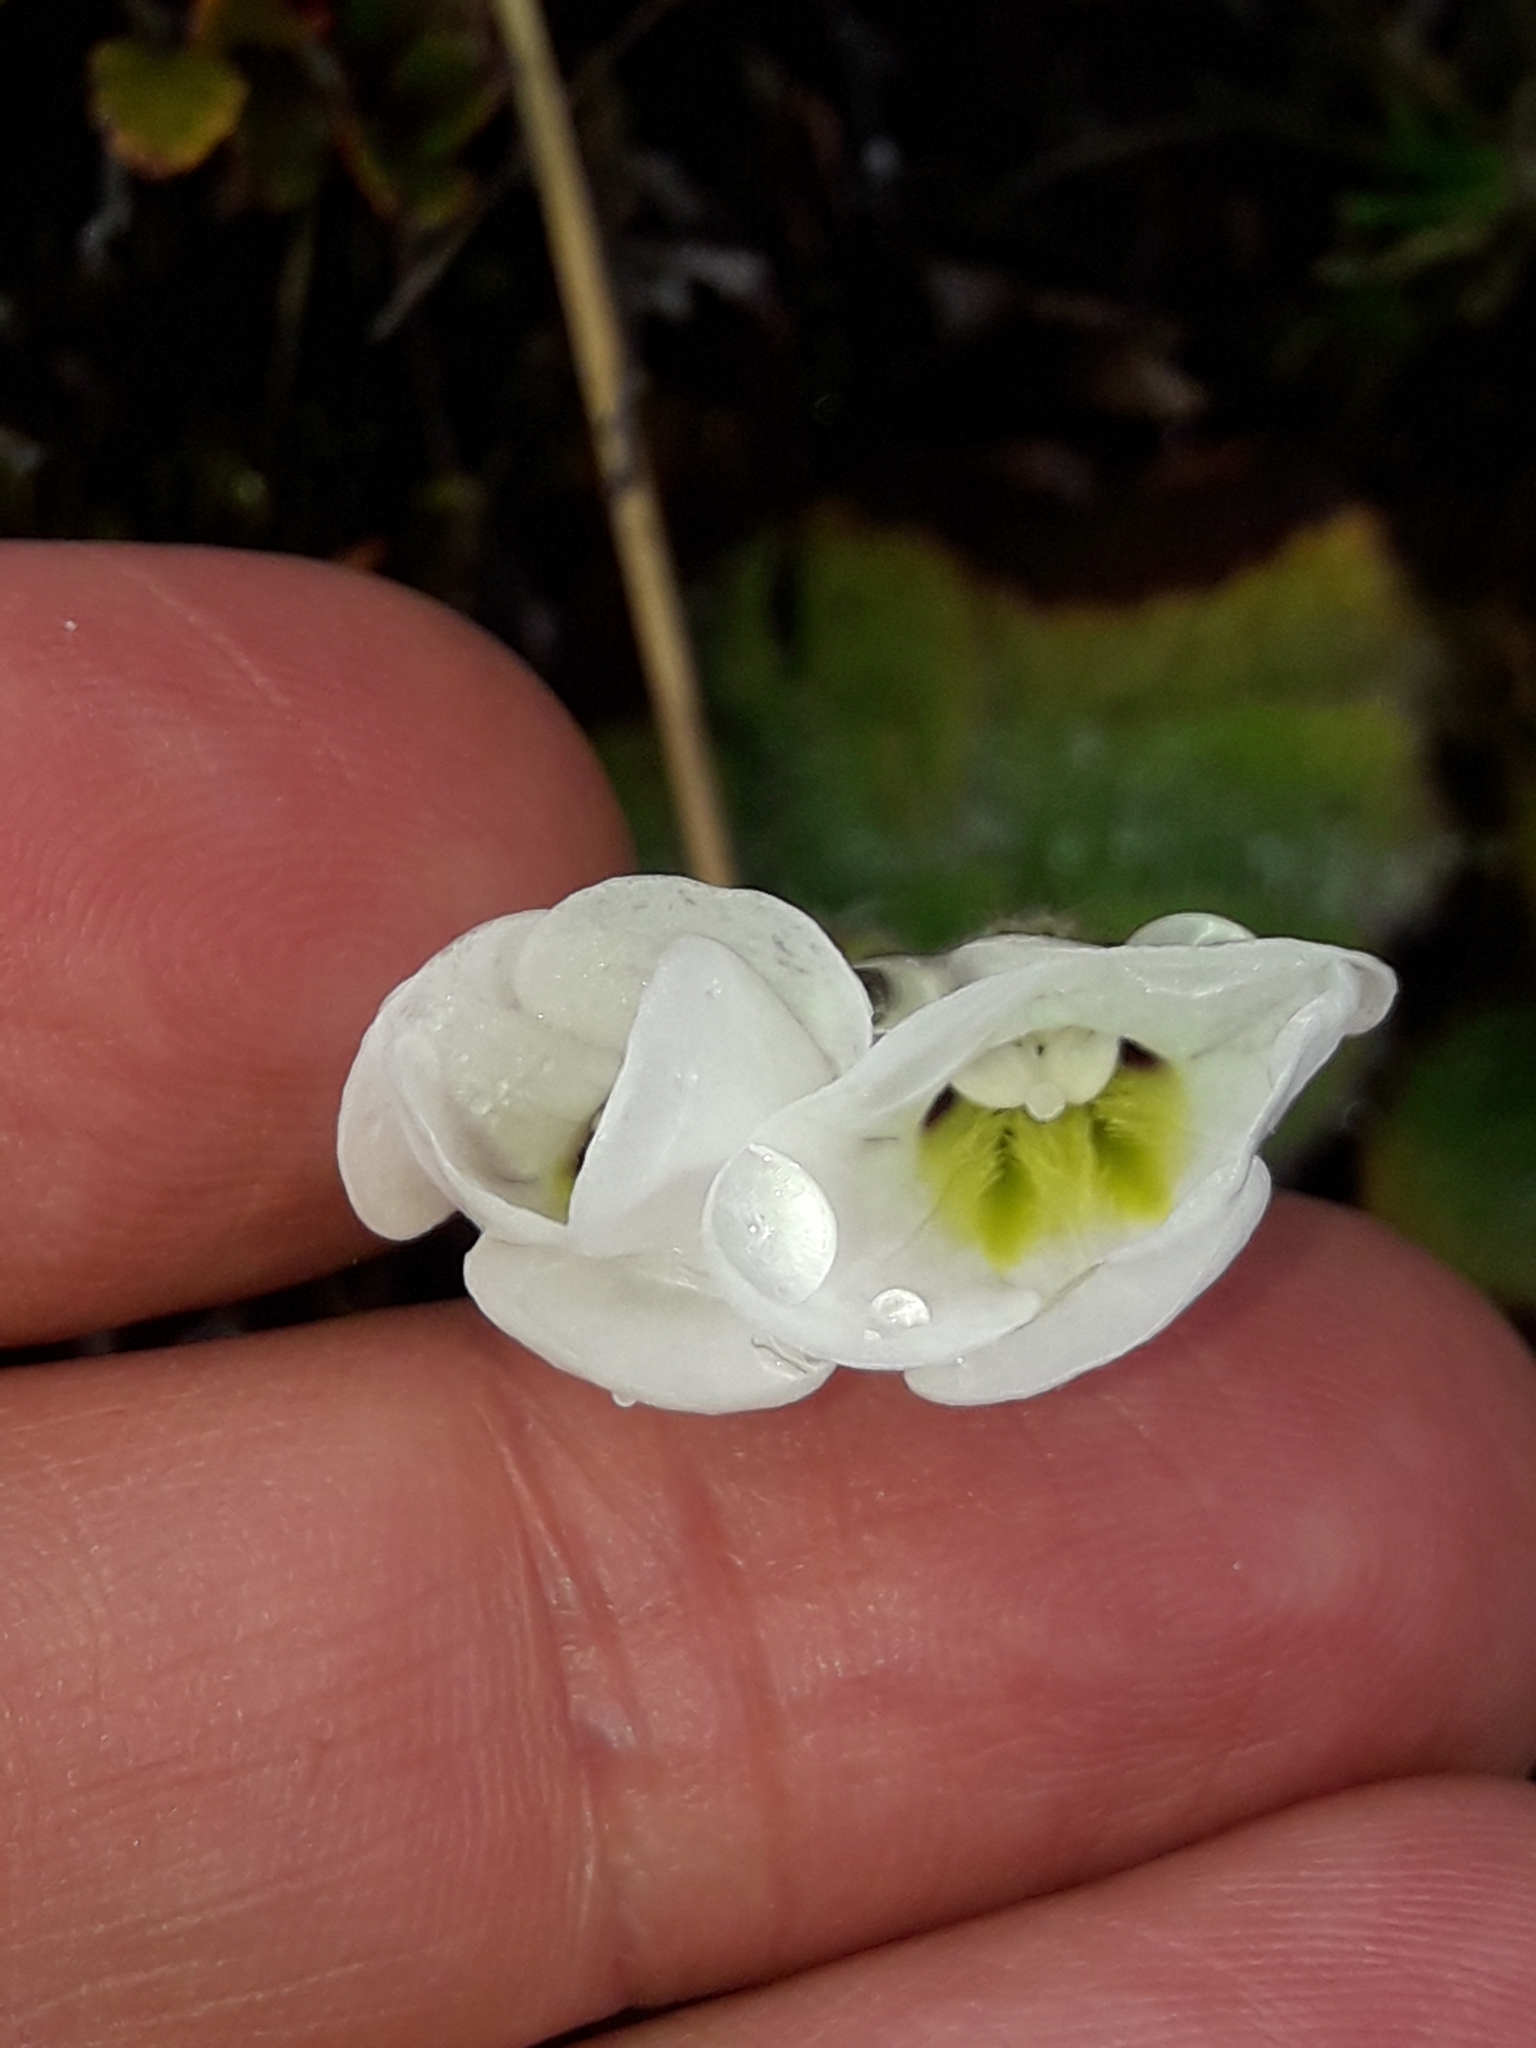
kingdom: Plantae
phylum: Tracheophyta
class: Magnoliopsida
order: Lamiales
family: Plantaginaceae
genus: Ourisia
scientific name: Ourisia sessilifolia
